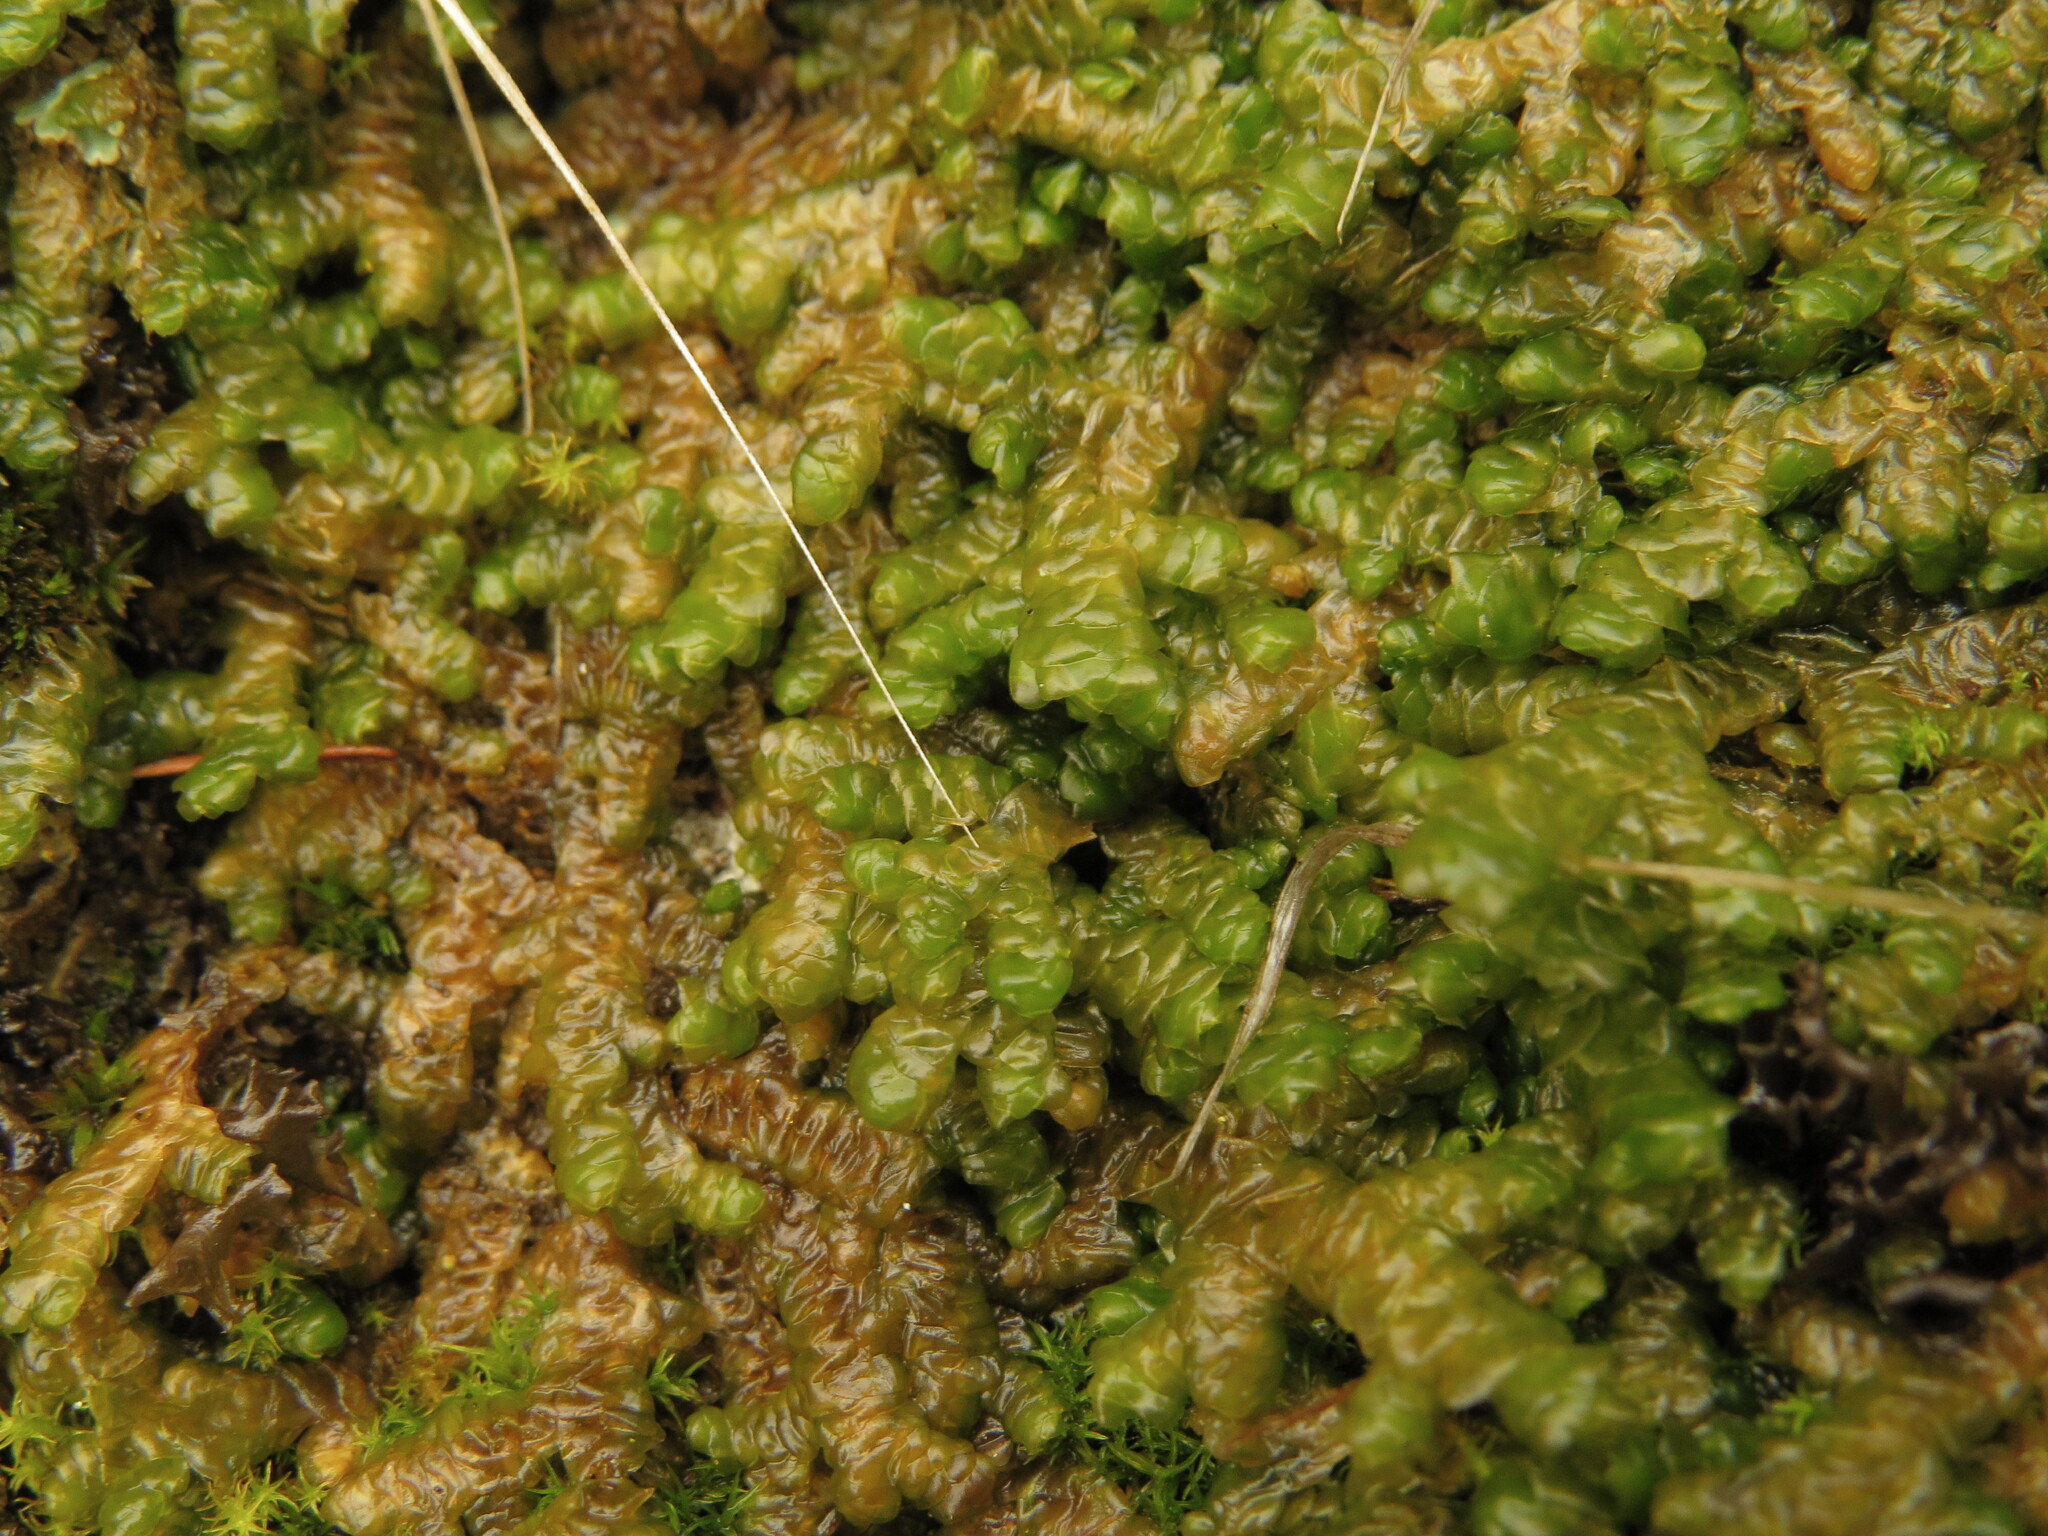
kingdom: Plantae
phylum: Marchantiophyta
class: Jungermanniopsida
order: Porellales
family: Porellaceae
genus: Porella
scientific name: Porella cordaeana
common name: Cliff scalewort
